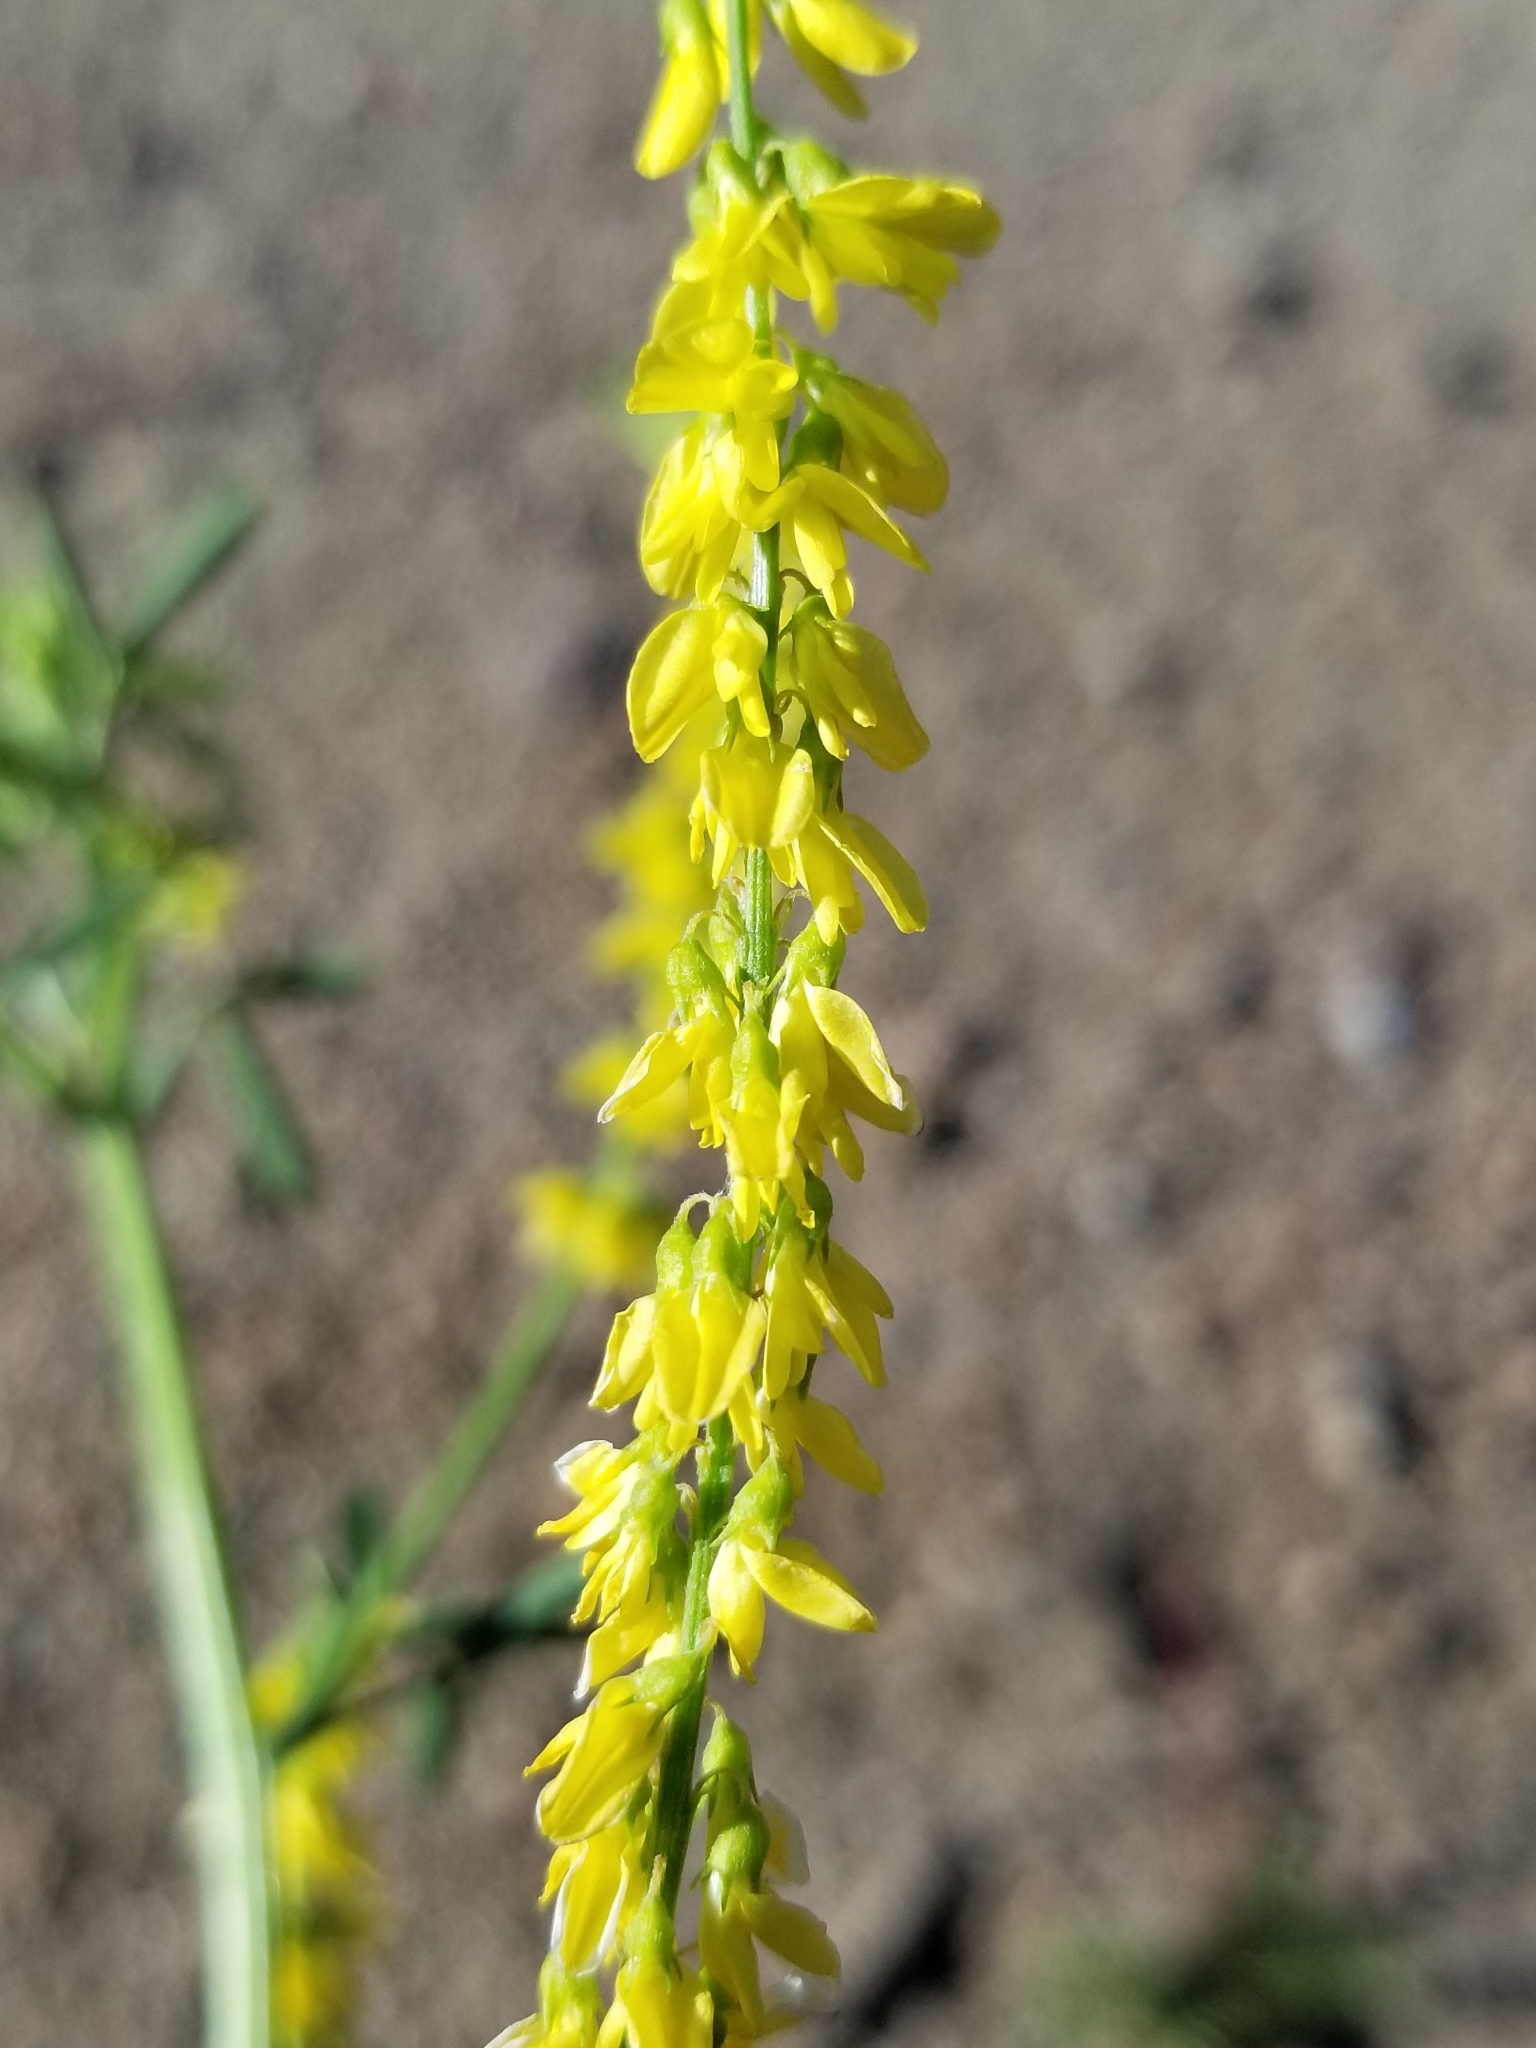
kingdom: Plantae
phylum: Tracheophyta
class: Magnoliopsida
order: Fabales
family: Fabaceae
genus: Melilotus
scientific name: Melilotus officinalis
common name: Sweetclover
